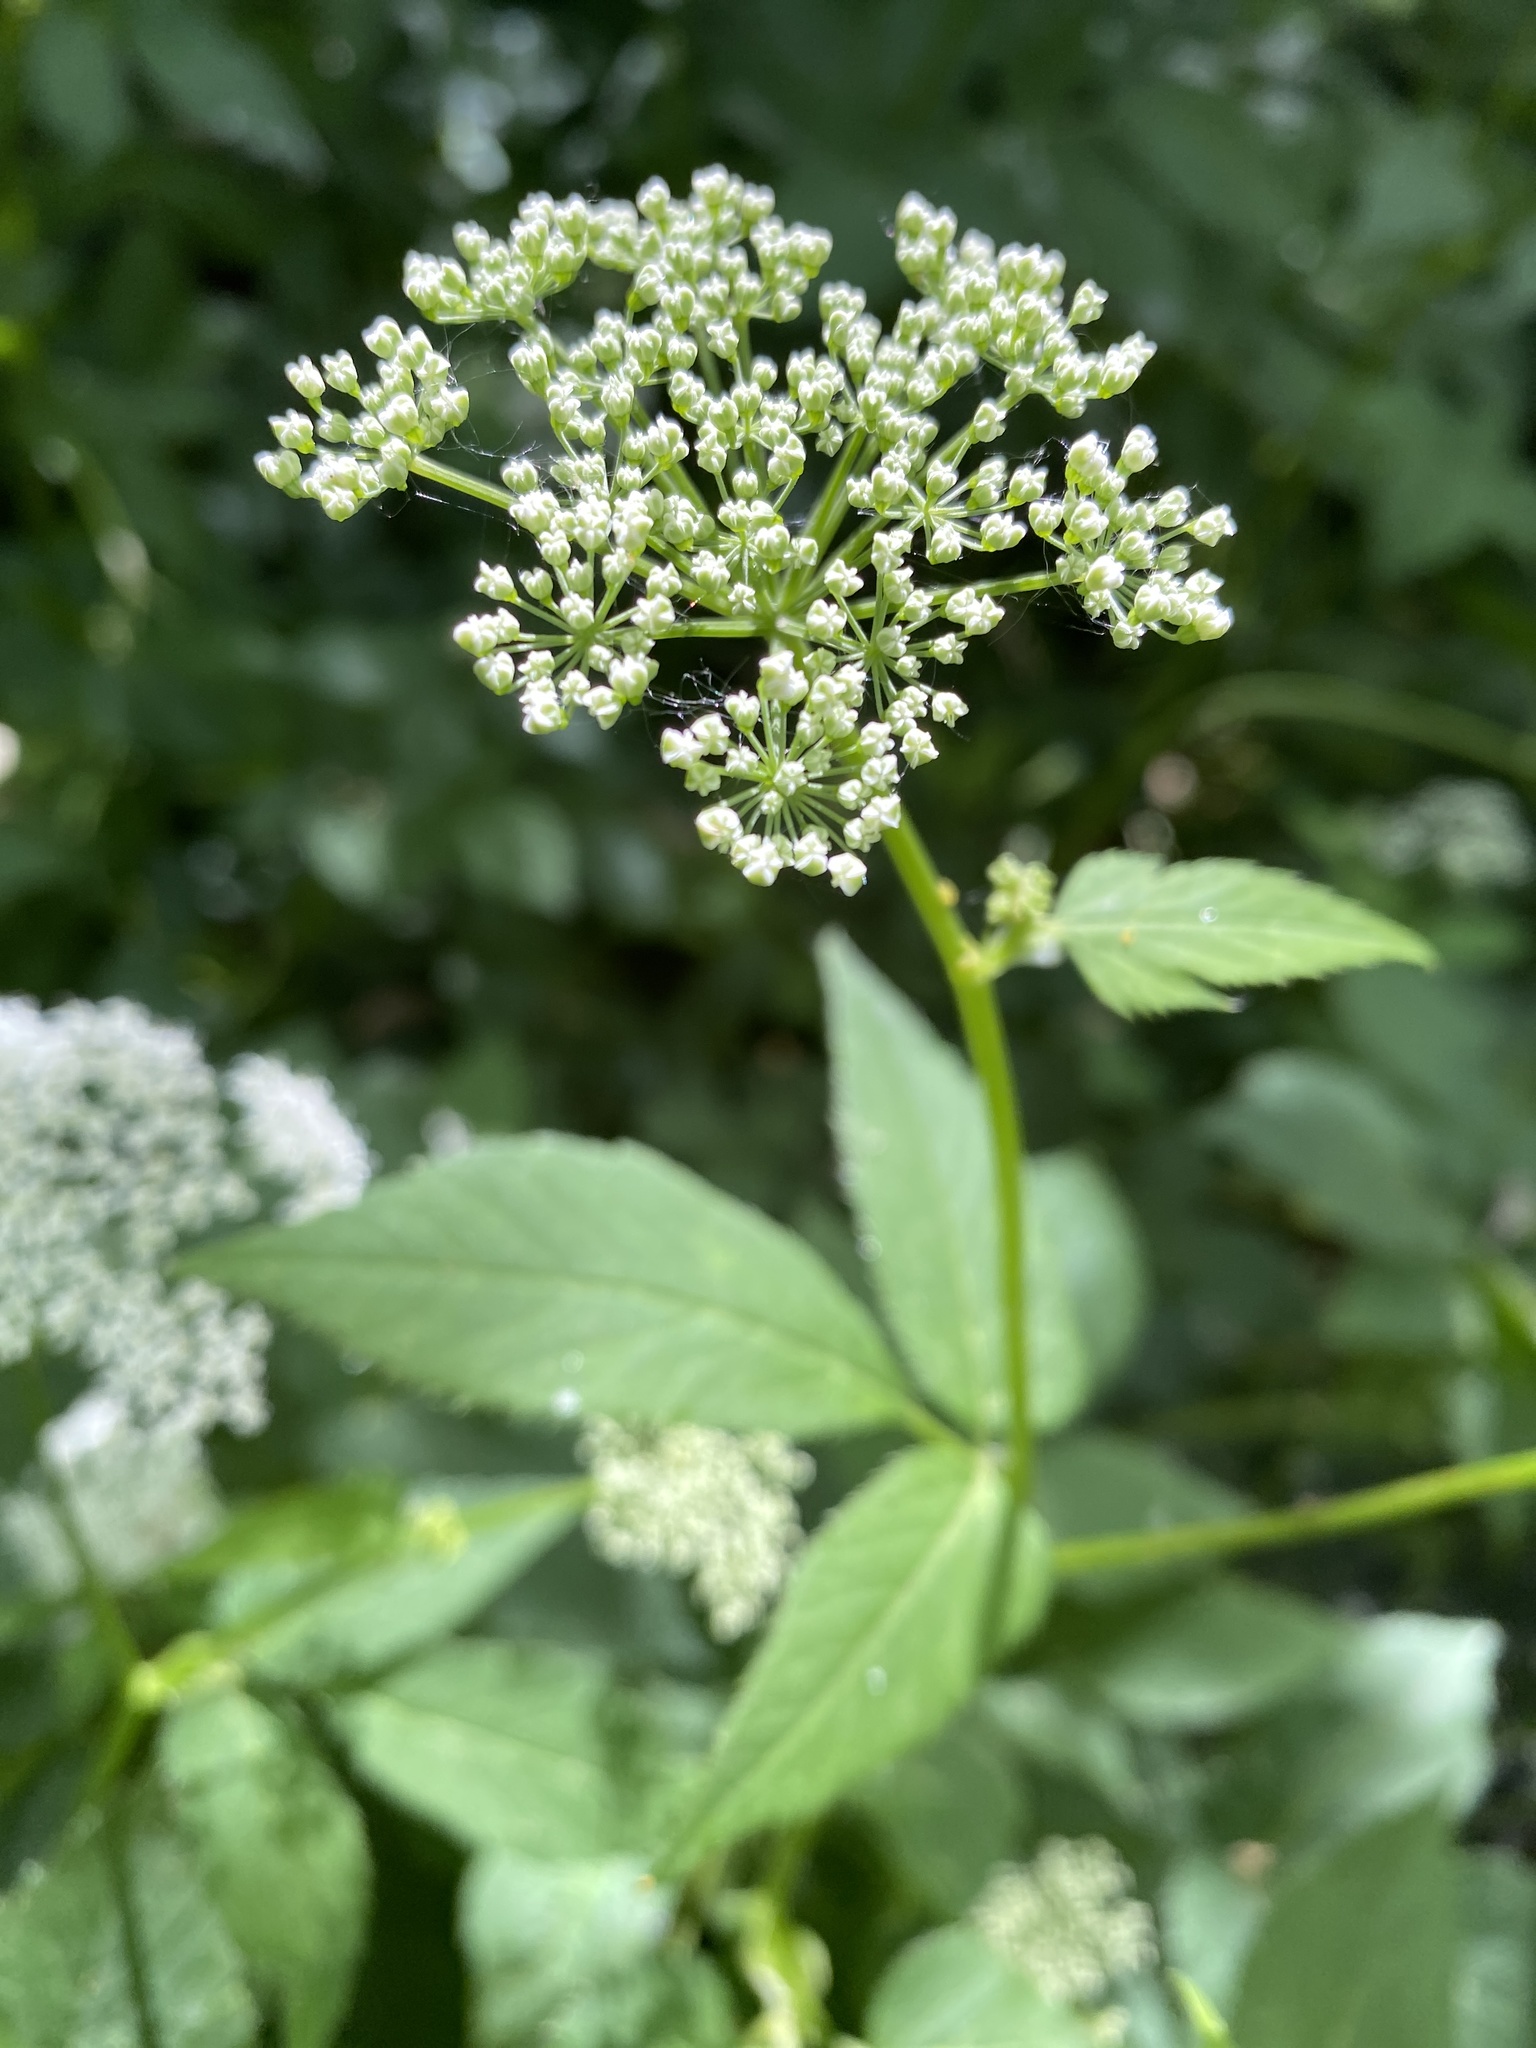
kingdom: Plantae
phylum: Tracheophyta
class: Magnoliopsida
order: Apiales
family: Apiaceae
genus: Aegopodium
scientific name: Aegopodium podagraria
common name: Ground-elder
